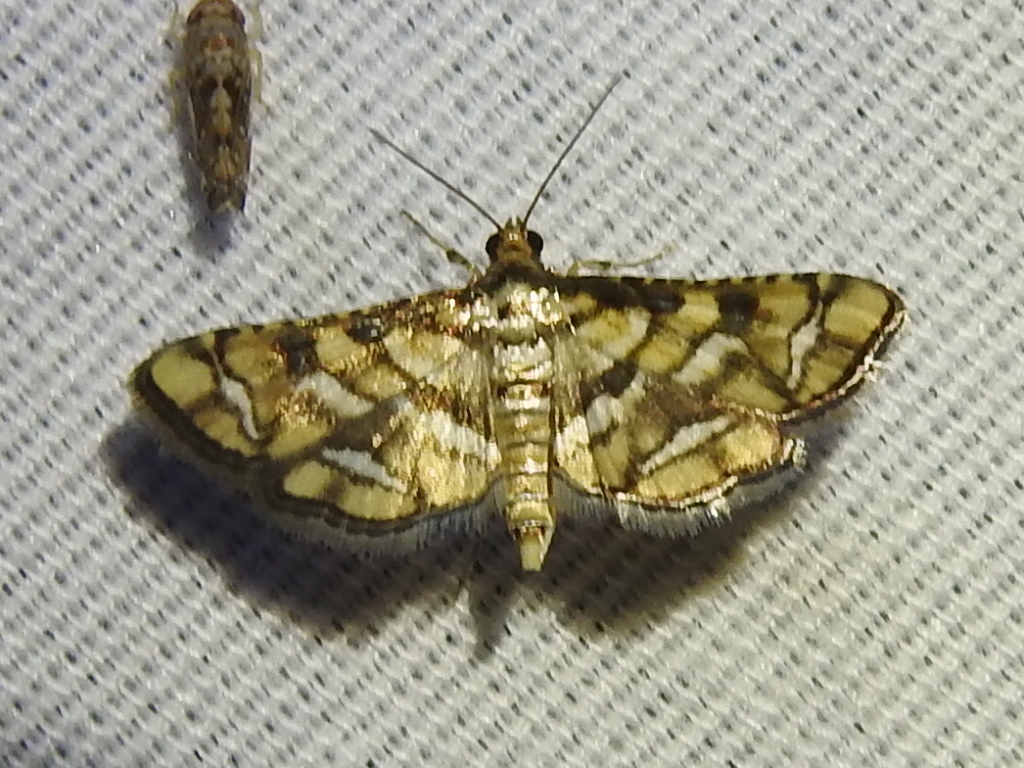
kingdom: Animalia
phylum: Arthropoda
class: Insecta
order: Lepidoptera
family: Crambidae
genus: Hileithia
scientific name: Hileithia magualis
